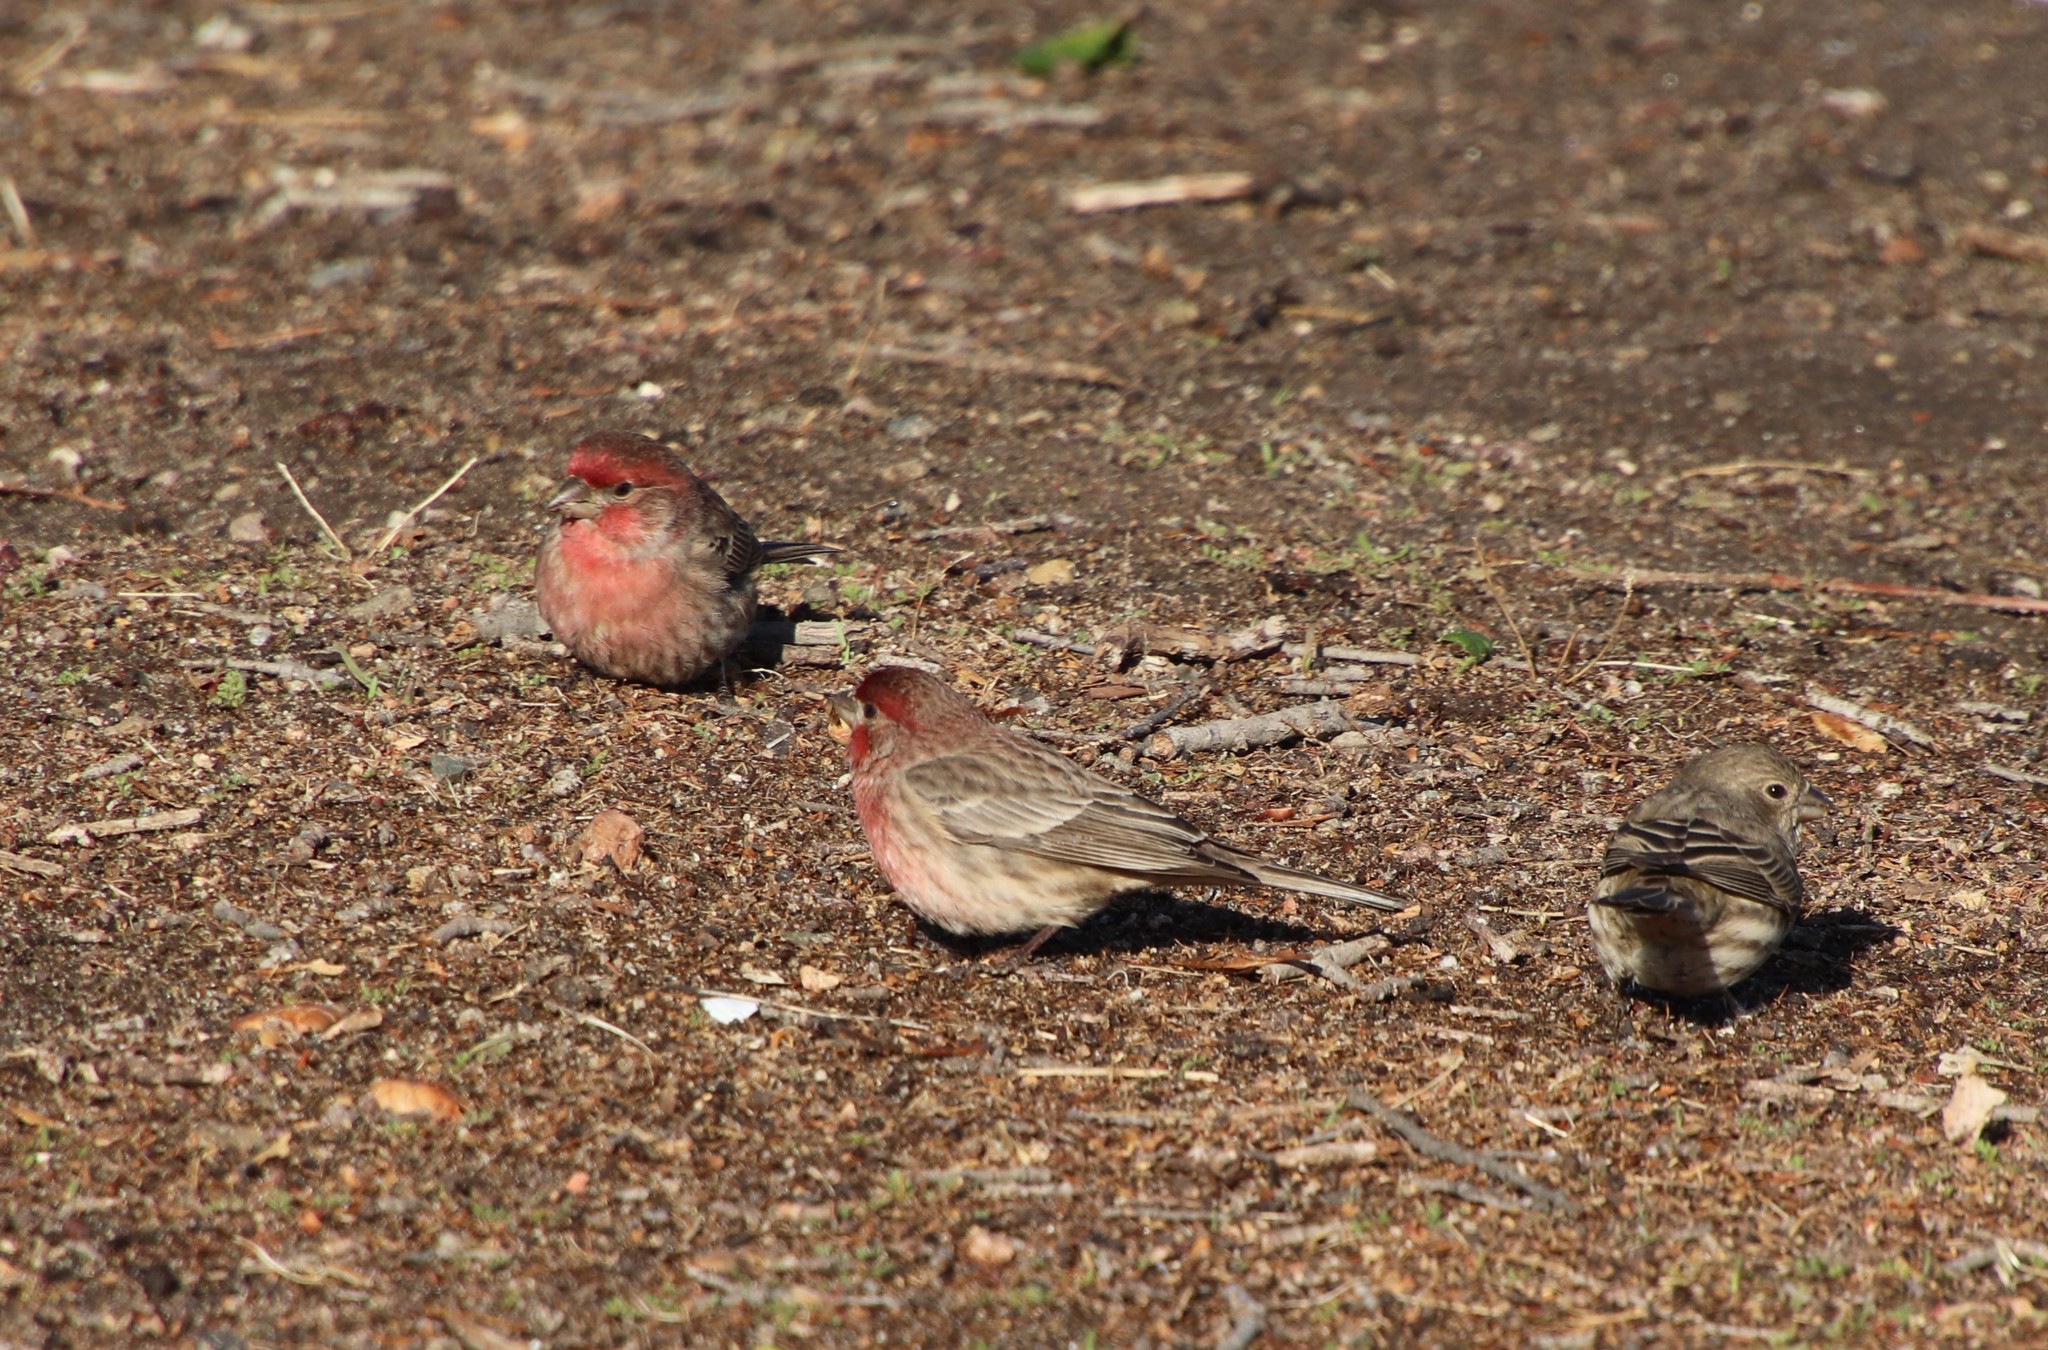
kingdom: Animalia
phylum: Chordata
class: Aves
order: Passeriformes
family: Fringillidae
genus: Haemorhous
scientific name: Haemorhous mexicanus
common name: House finch
